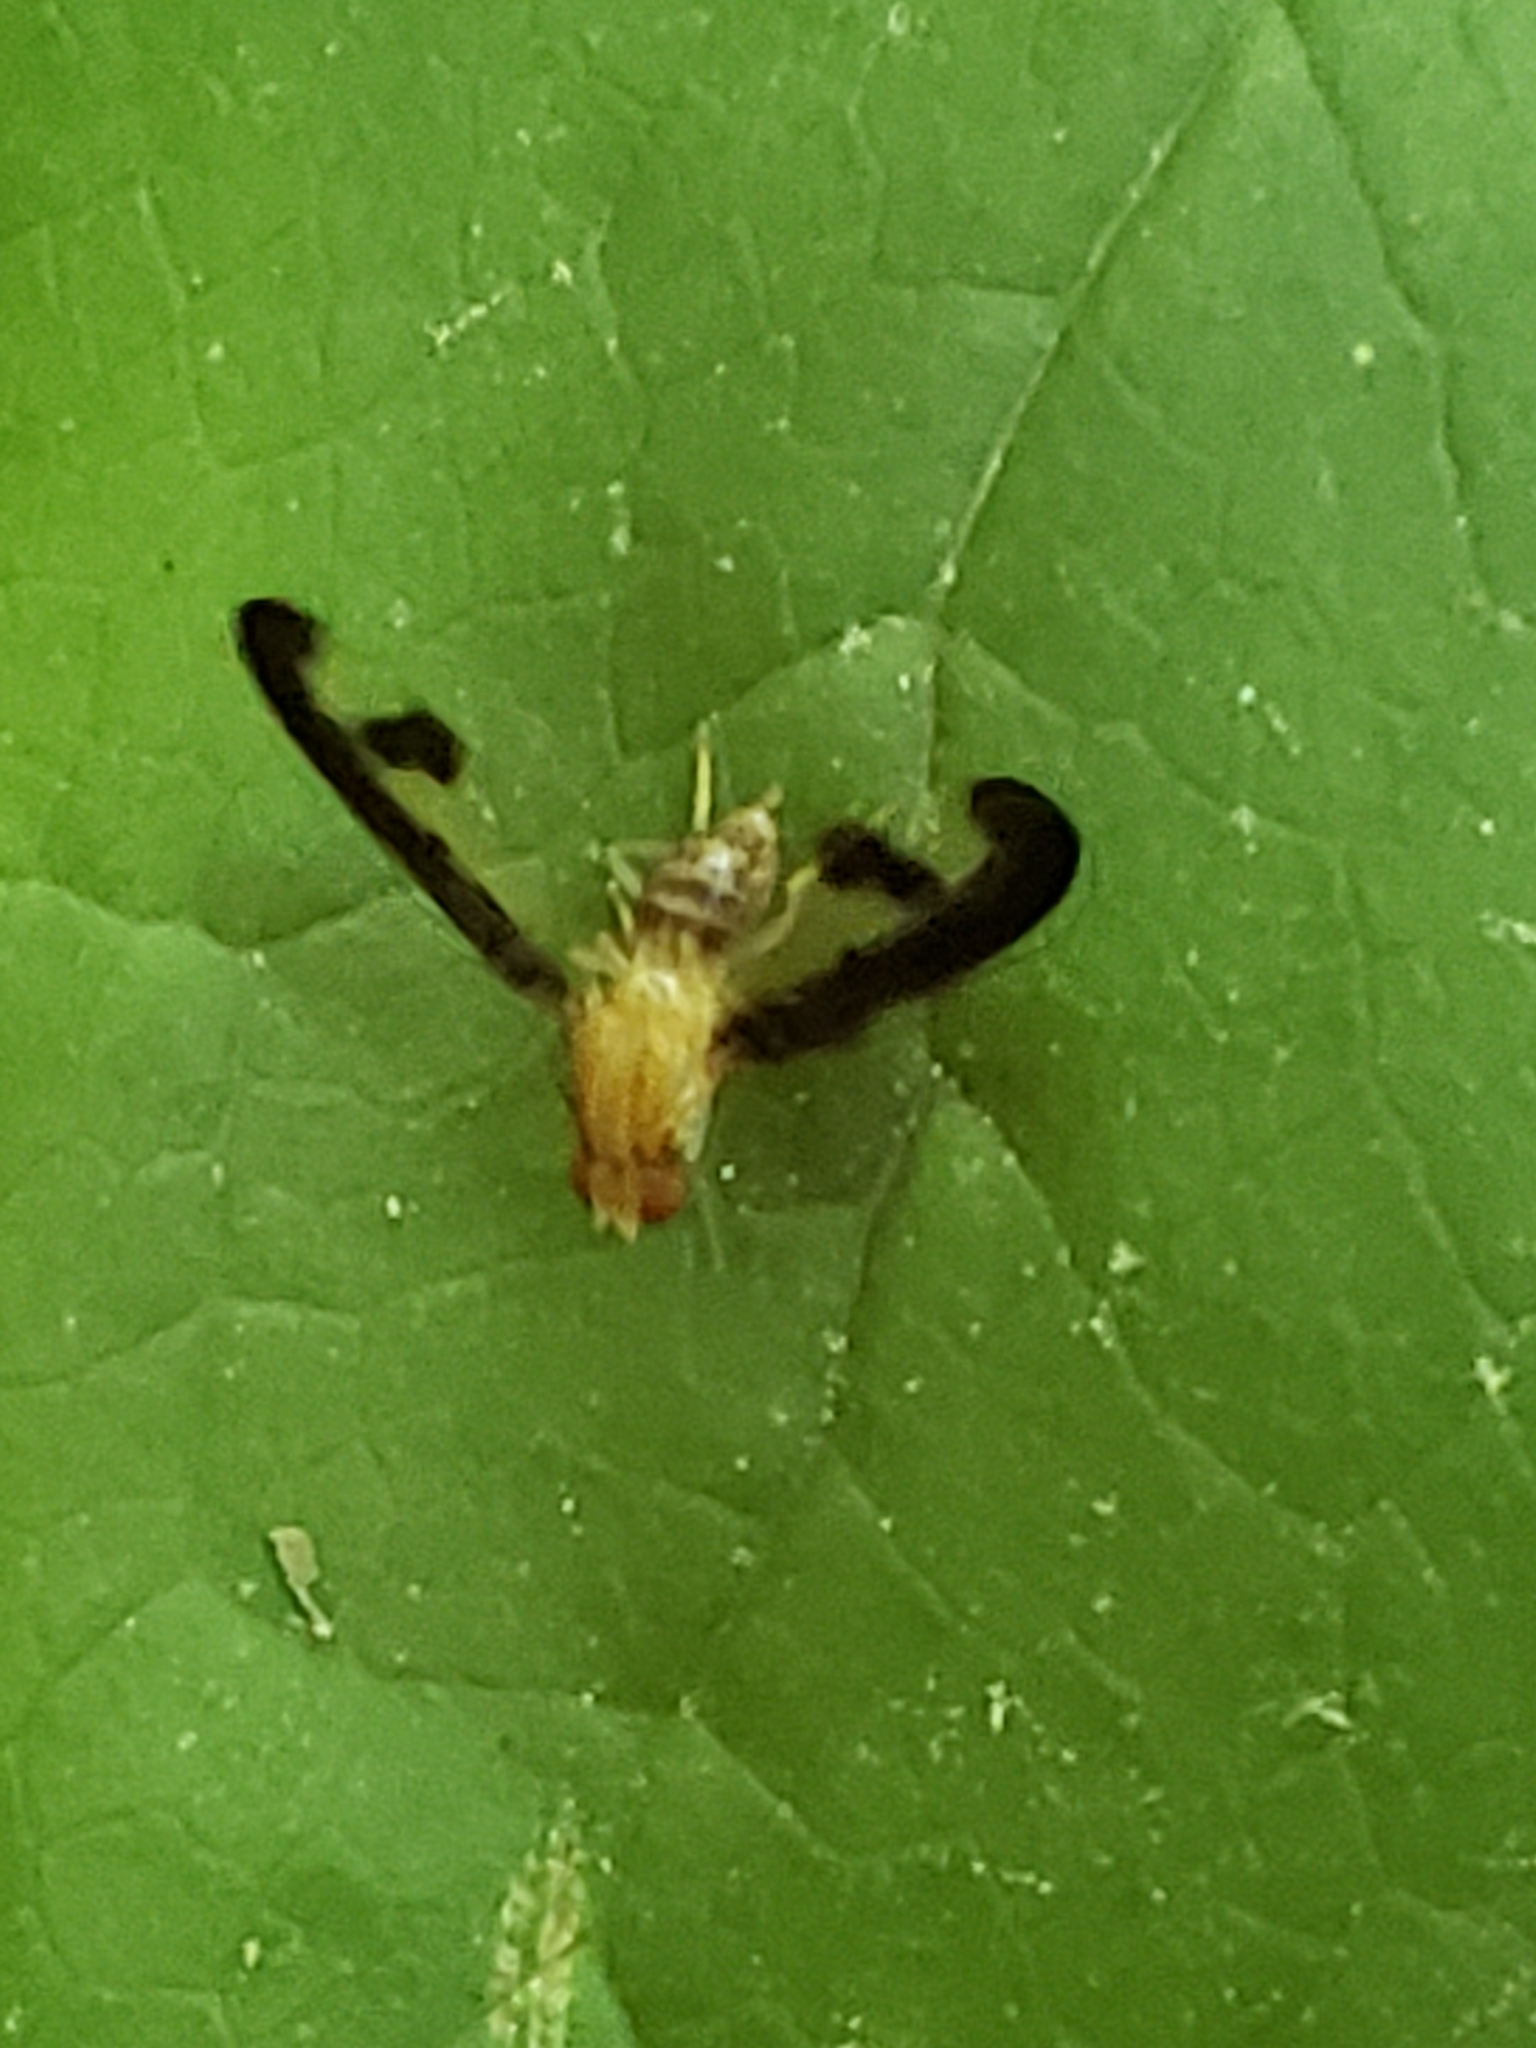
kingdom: Animalia
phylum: Arthropoda
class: Insecta
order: Diptera
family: Pallopteridae
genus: Toxonevra
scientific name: Toxonevra superba
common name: Antlered flutter fly
